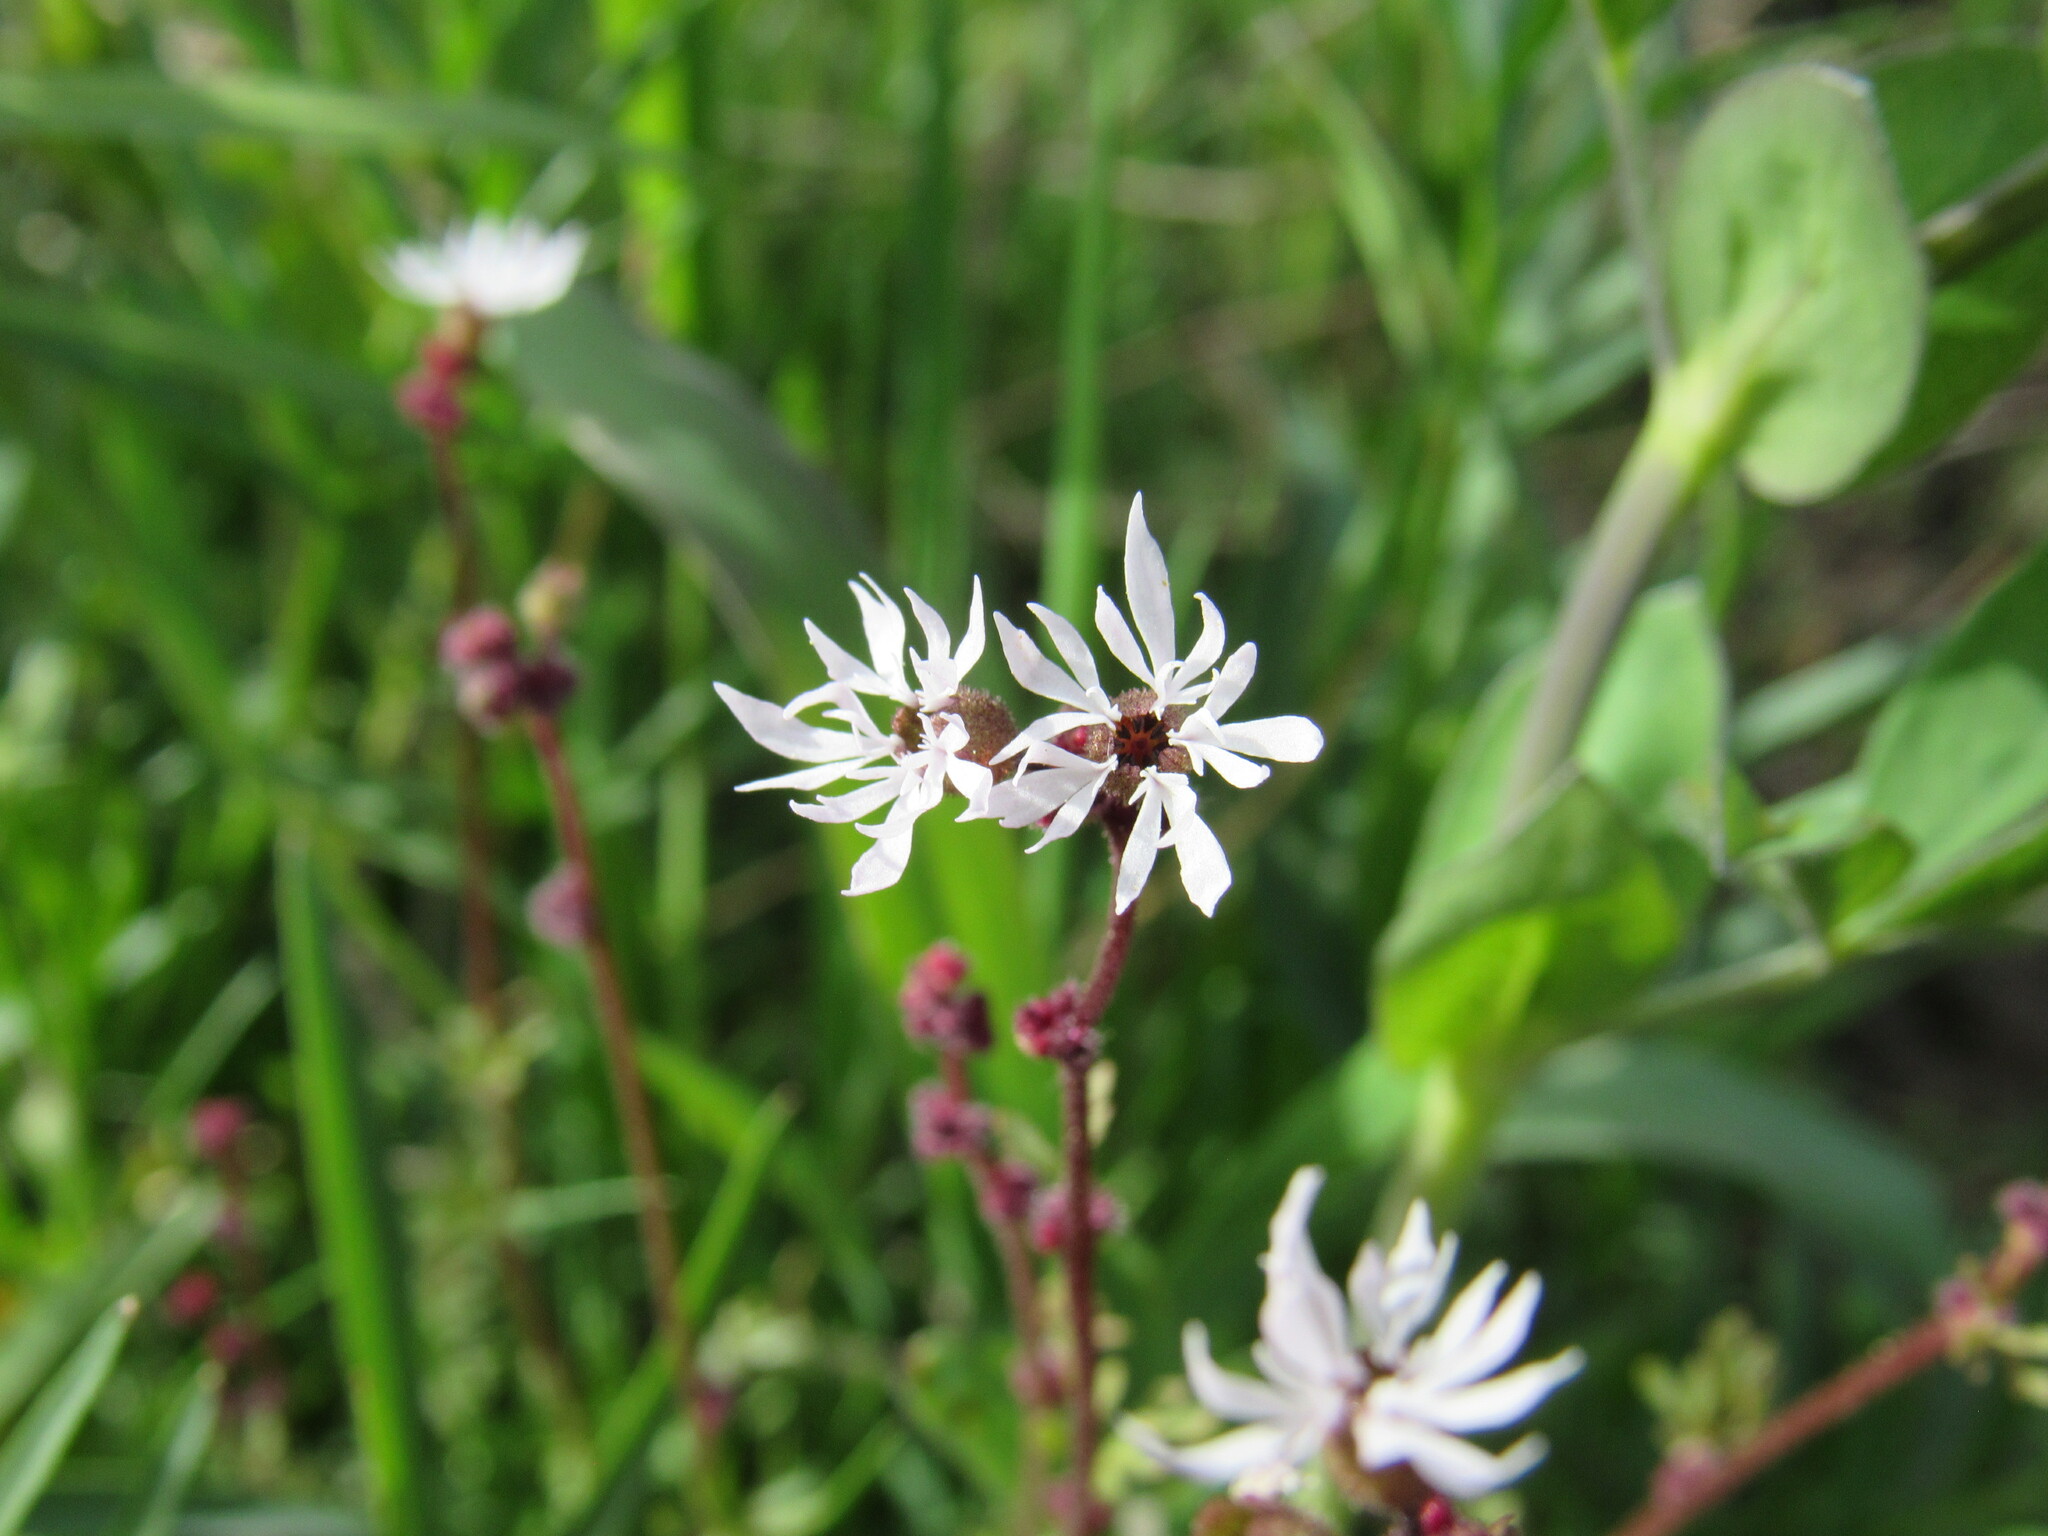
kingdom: Plantae
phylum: Tracheophyta
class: Magnoliopsida
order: Saxifragales
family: Saxifragaceae
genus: Lithophragma
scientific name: Lithophragma glabrum
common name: Bulbous prairie-star
